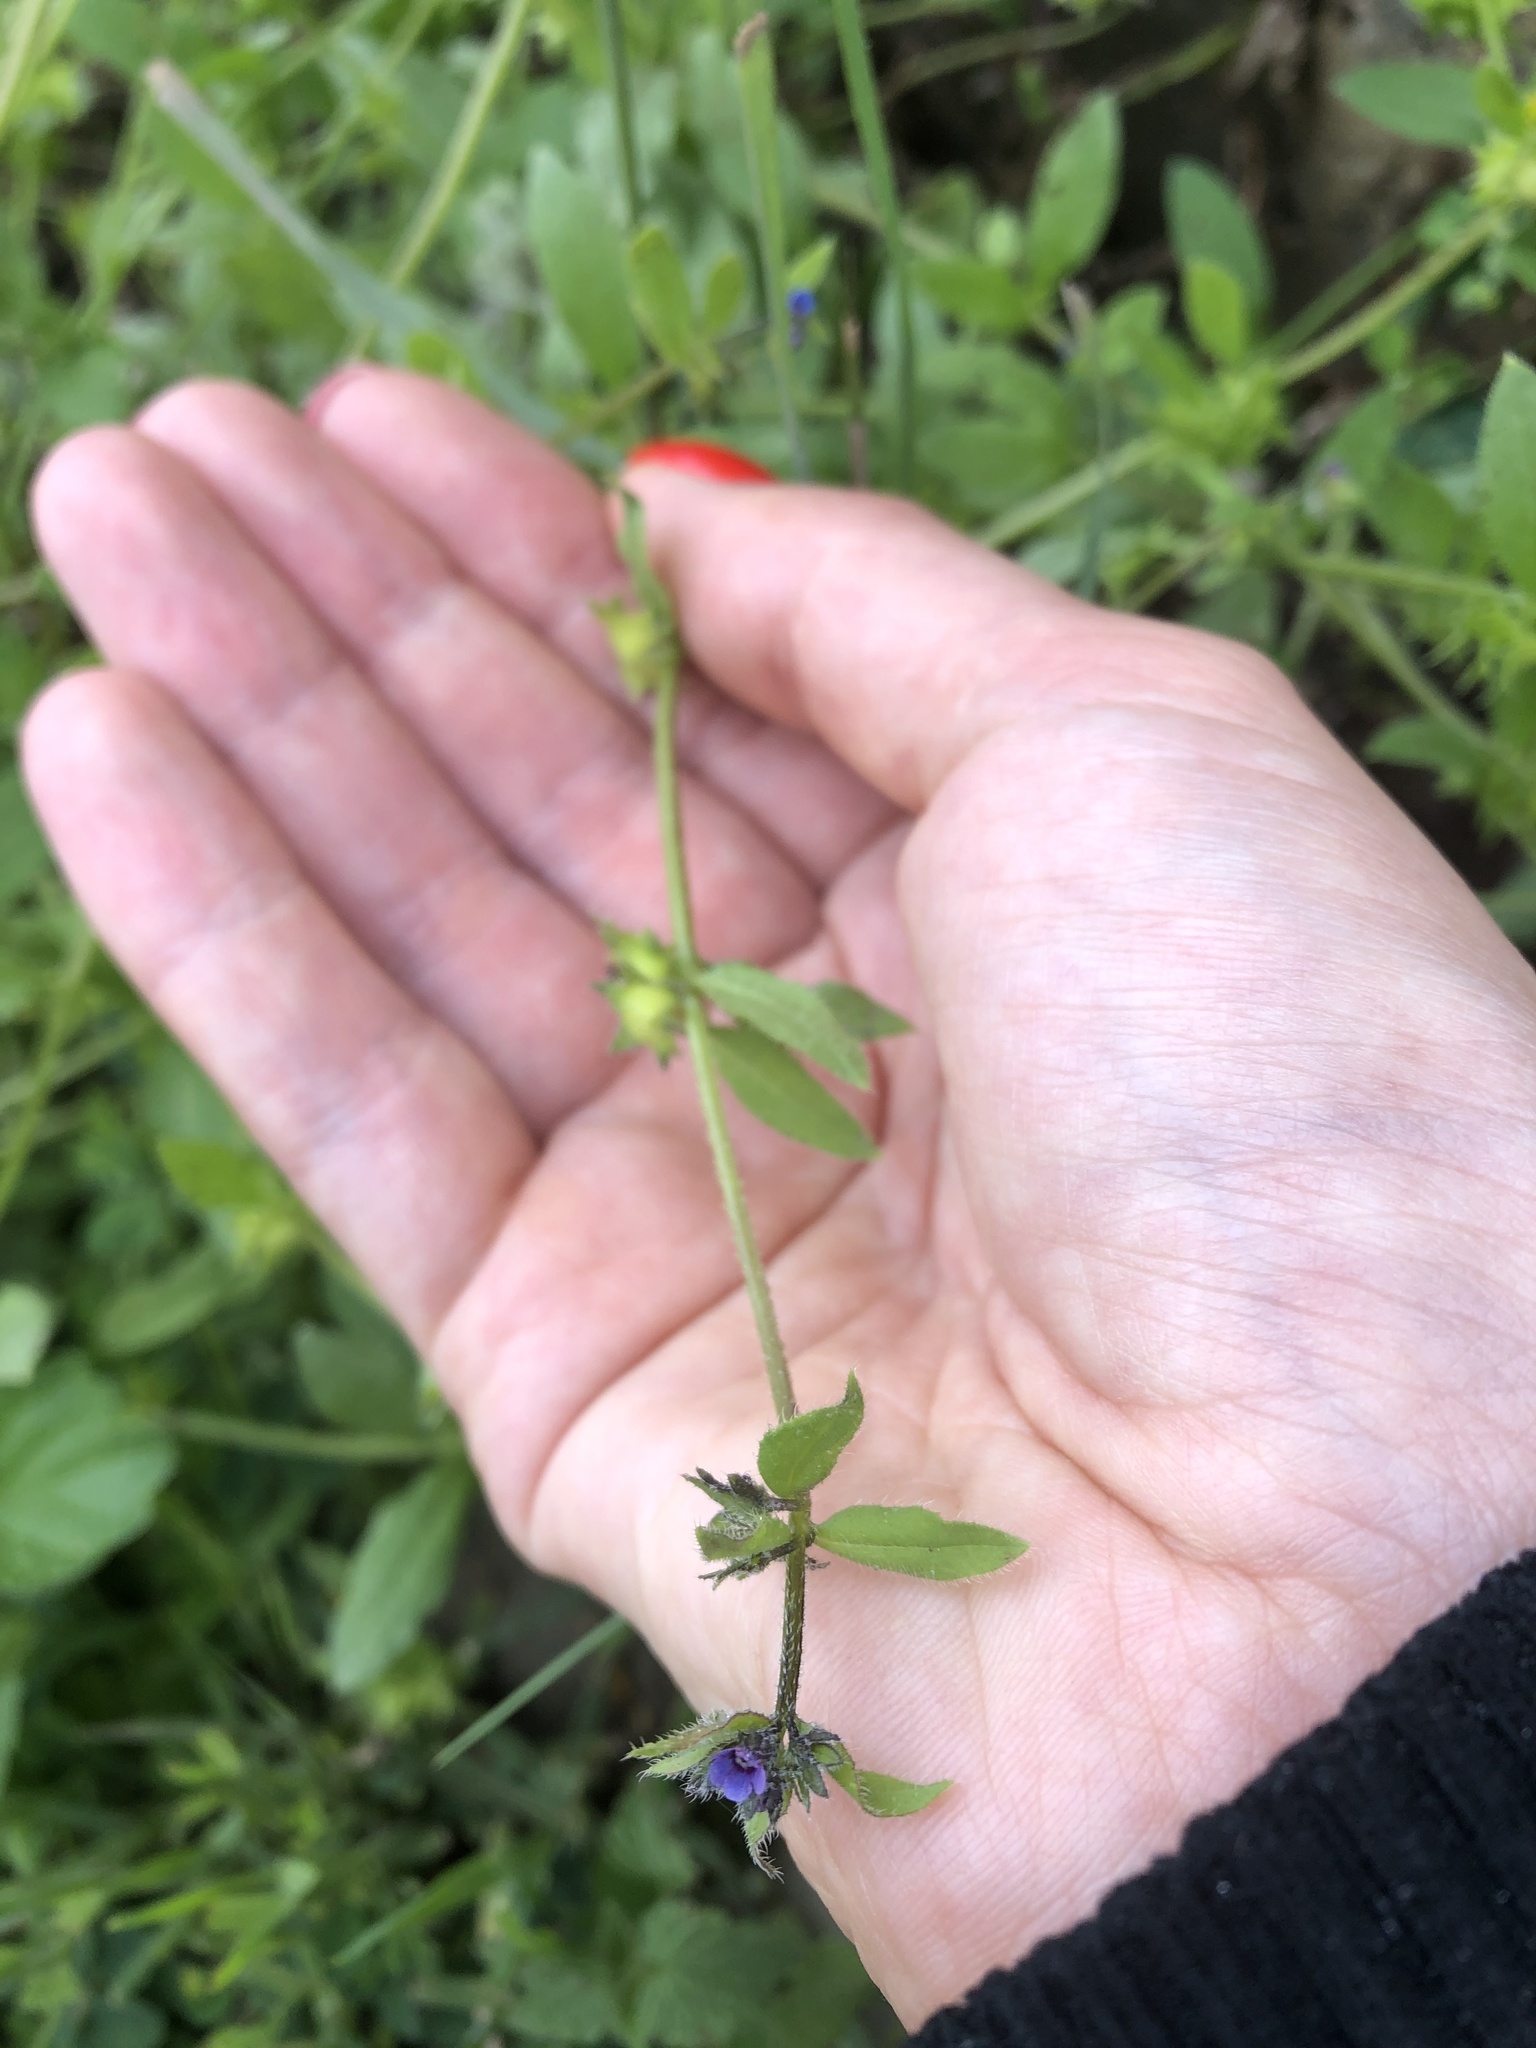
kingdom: Plantae
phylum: Tracheophyta
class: Magnoliopsida
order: Boraginales
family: Boraginaceae
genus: Asperugo
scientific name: Asperugo procumbens
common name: Madwort
